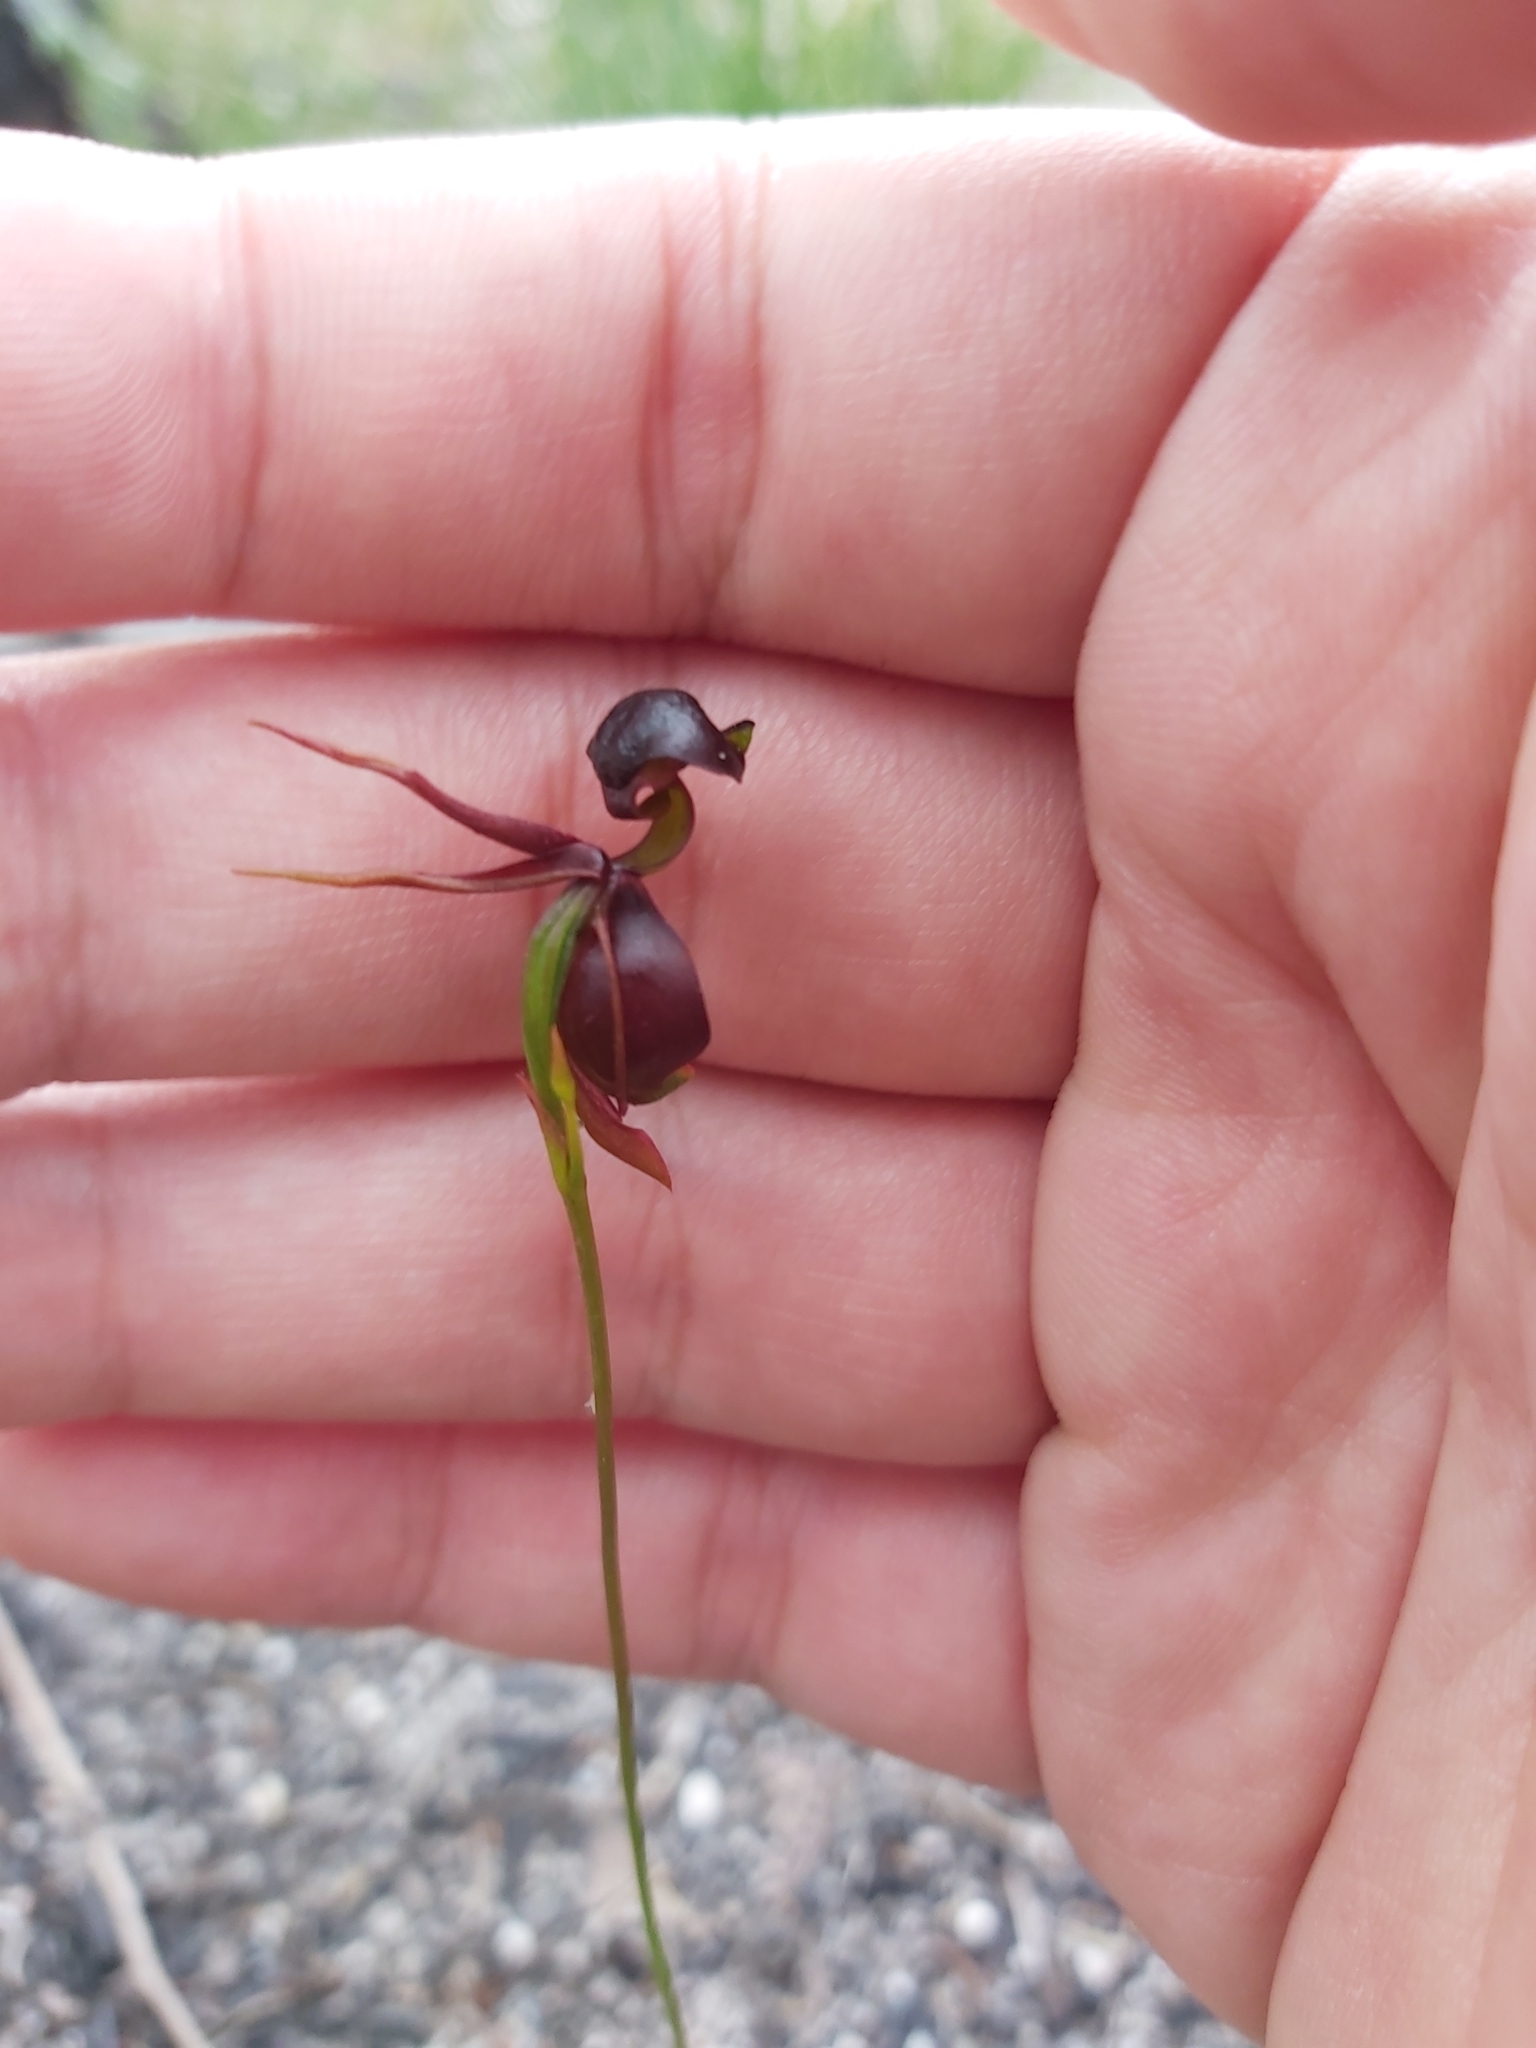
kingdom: Plantae
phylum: Tracheophyta
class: Liliopsida
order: Asparagales
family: Orchidaceae
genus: Caleana
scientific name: Caleana major
